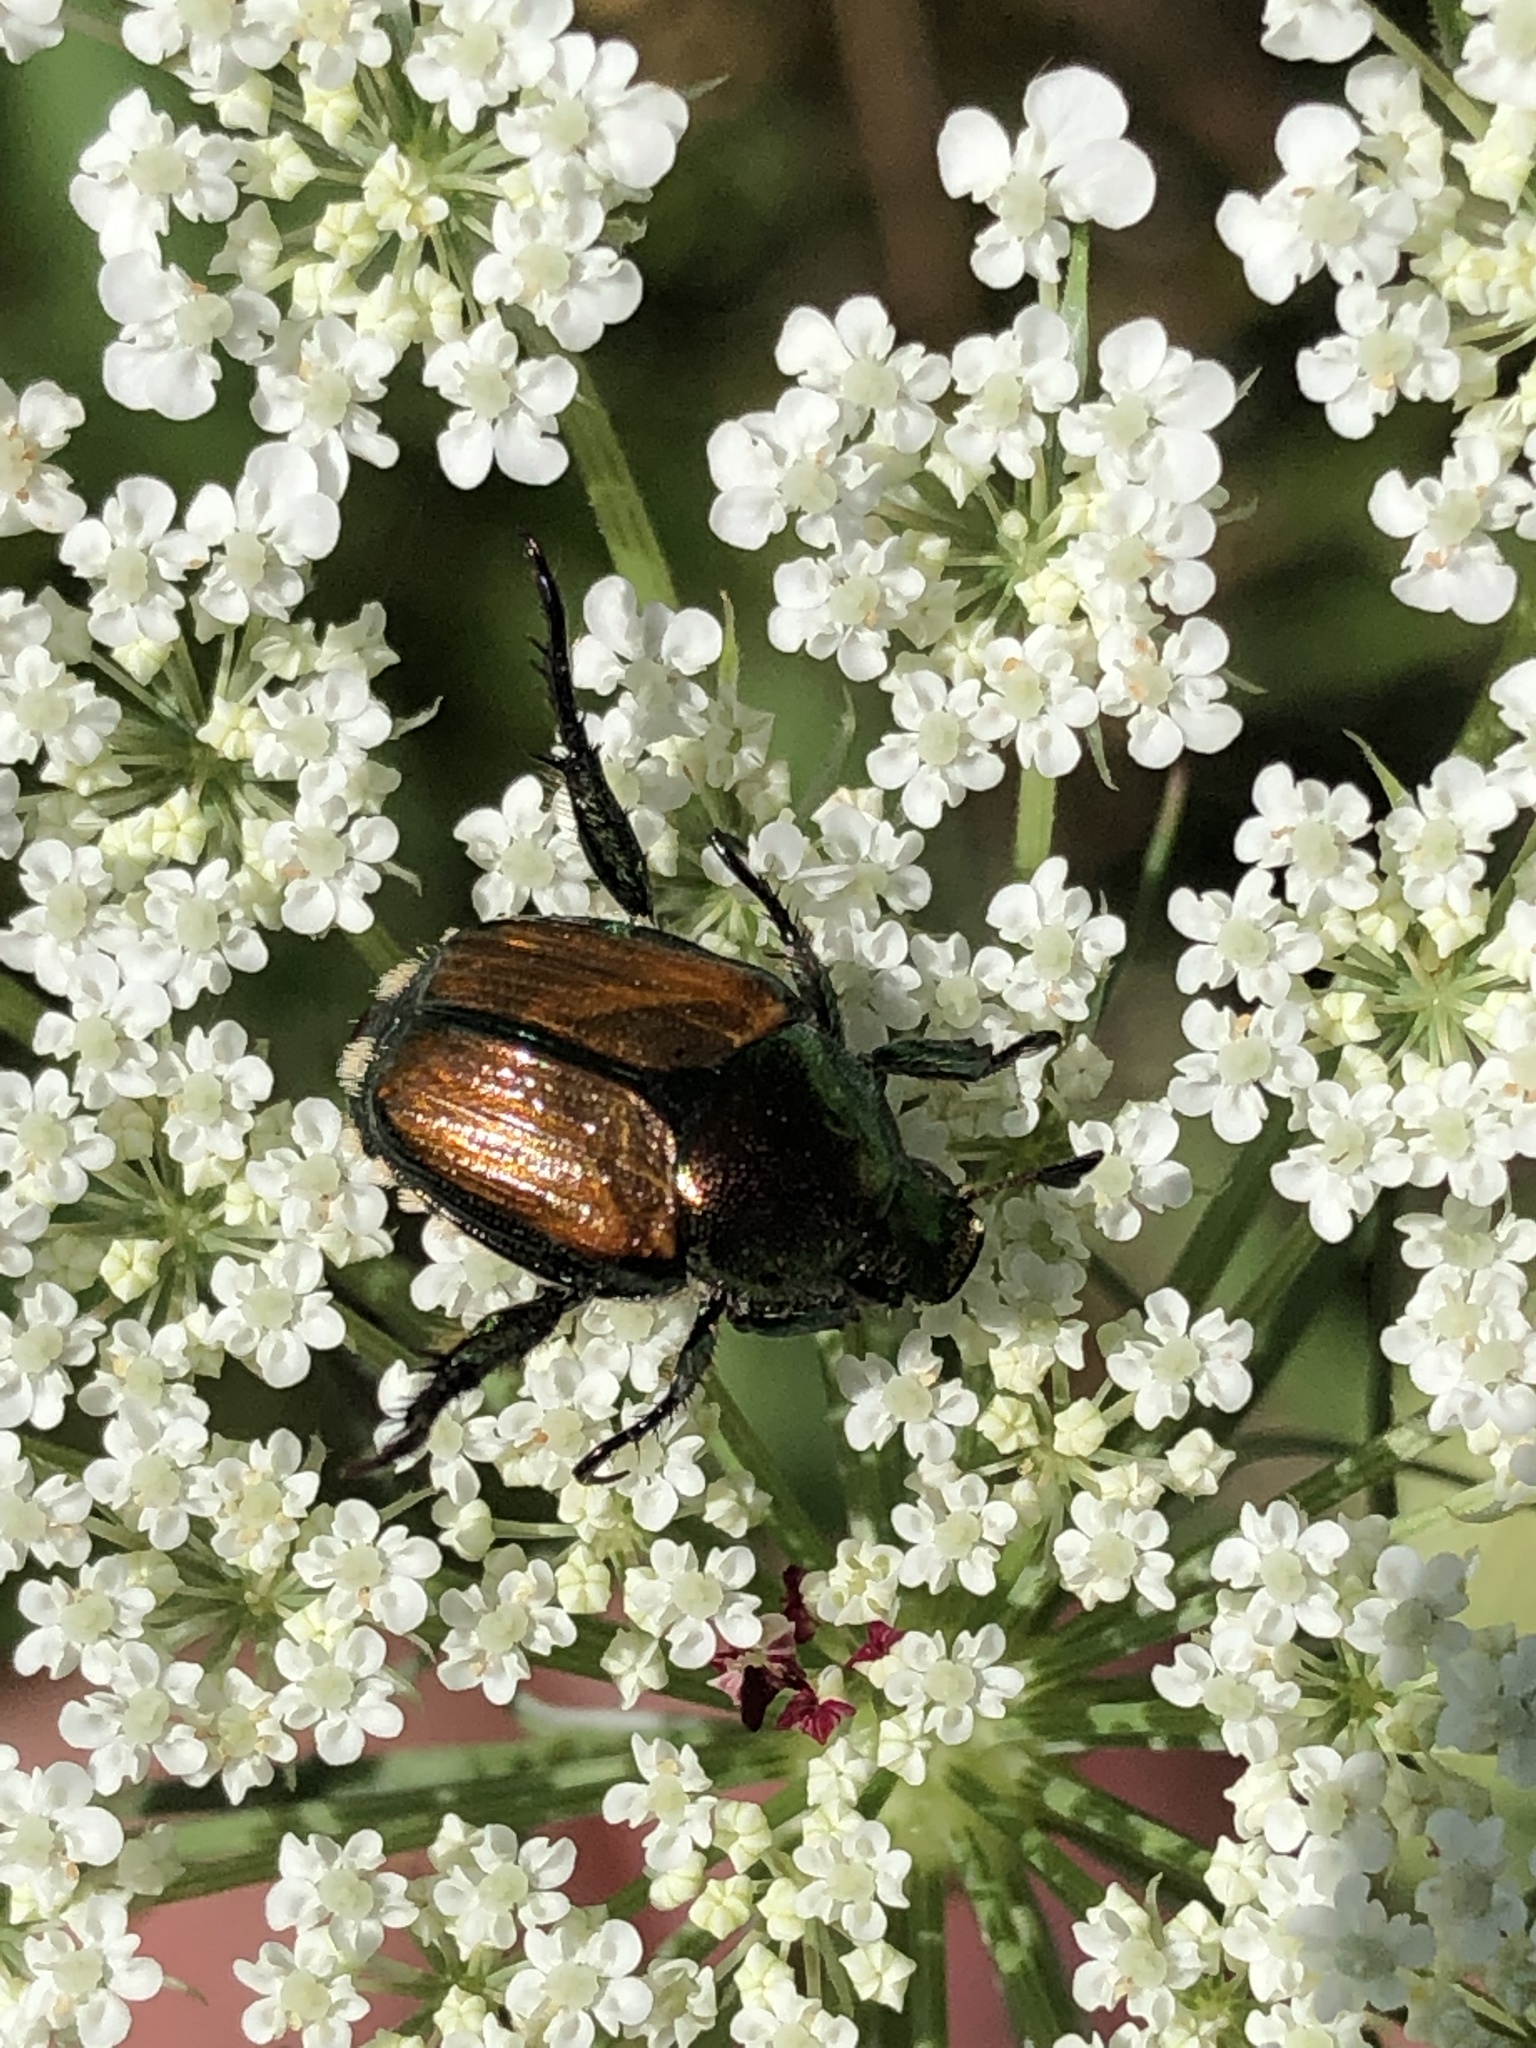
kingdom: Animalia
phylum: Arthropoda
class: Insecta
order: Coleoptera
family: Scarabaeidae
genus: Popillia
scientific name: Popillia japonica
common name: Japanese beetle
